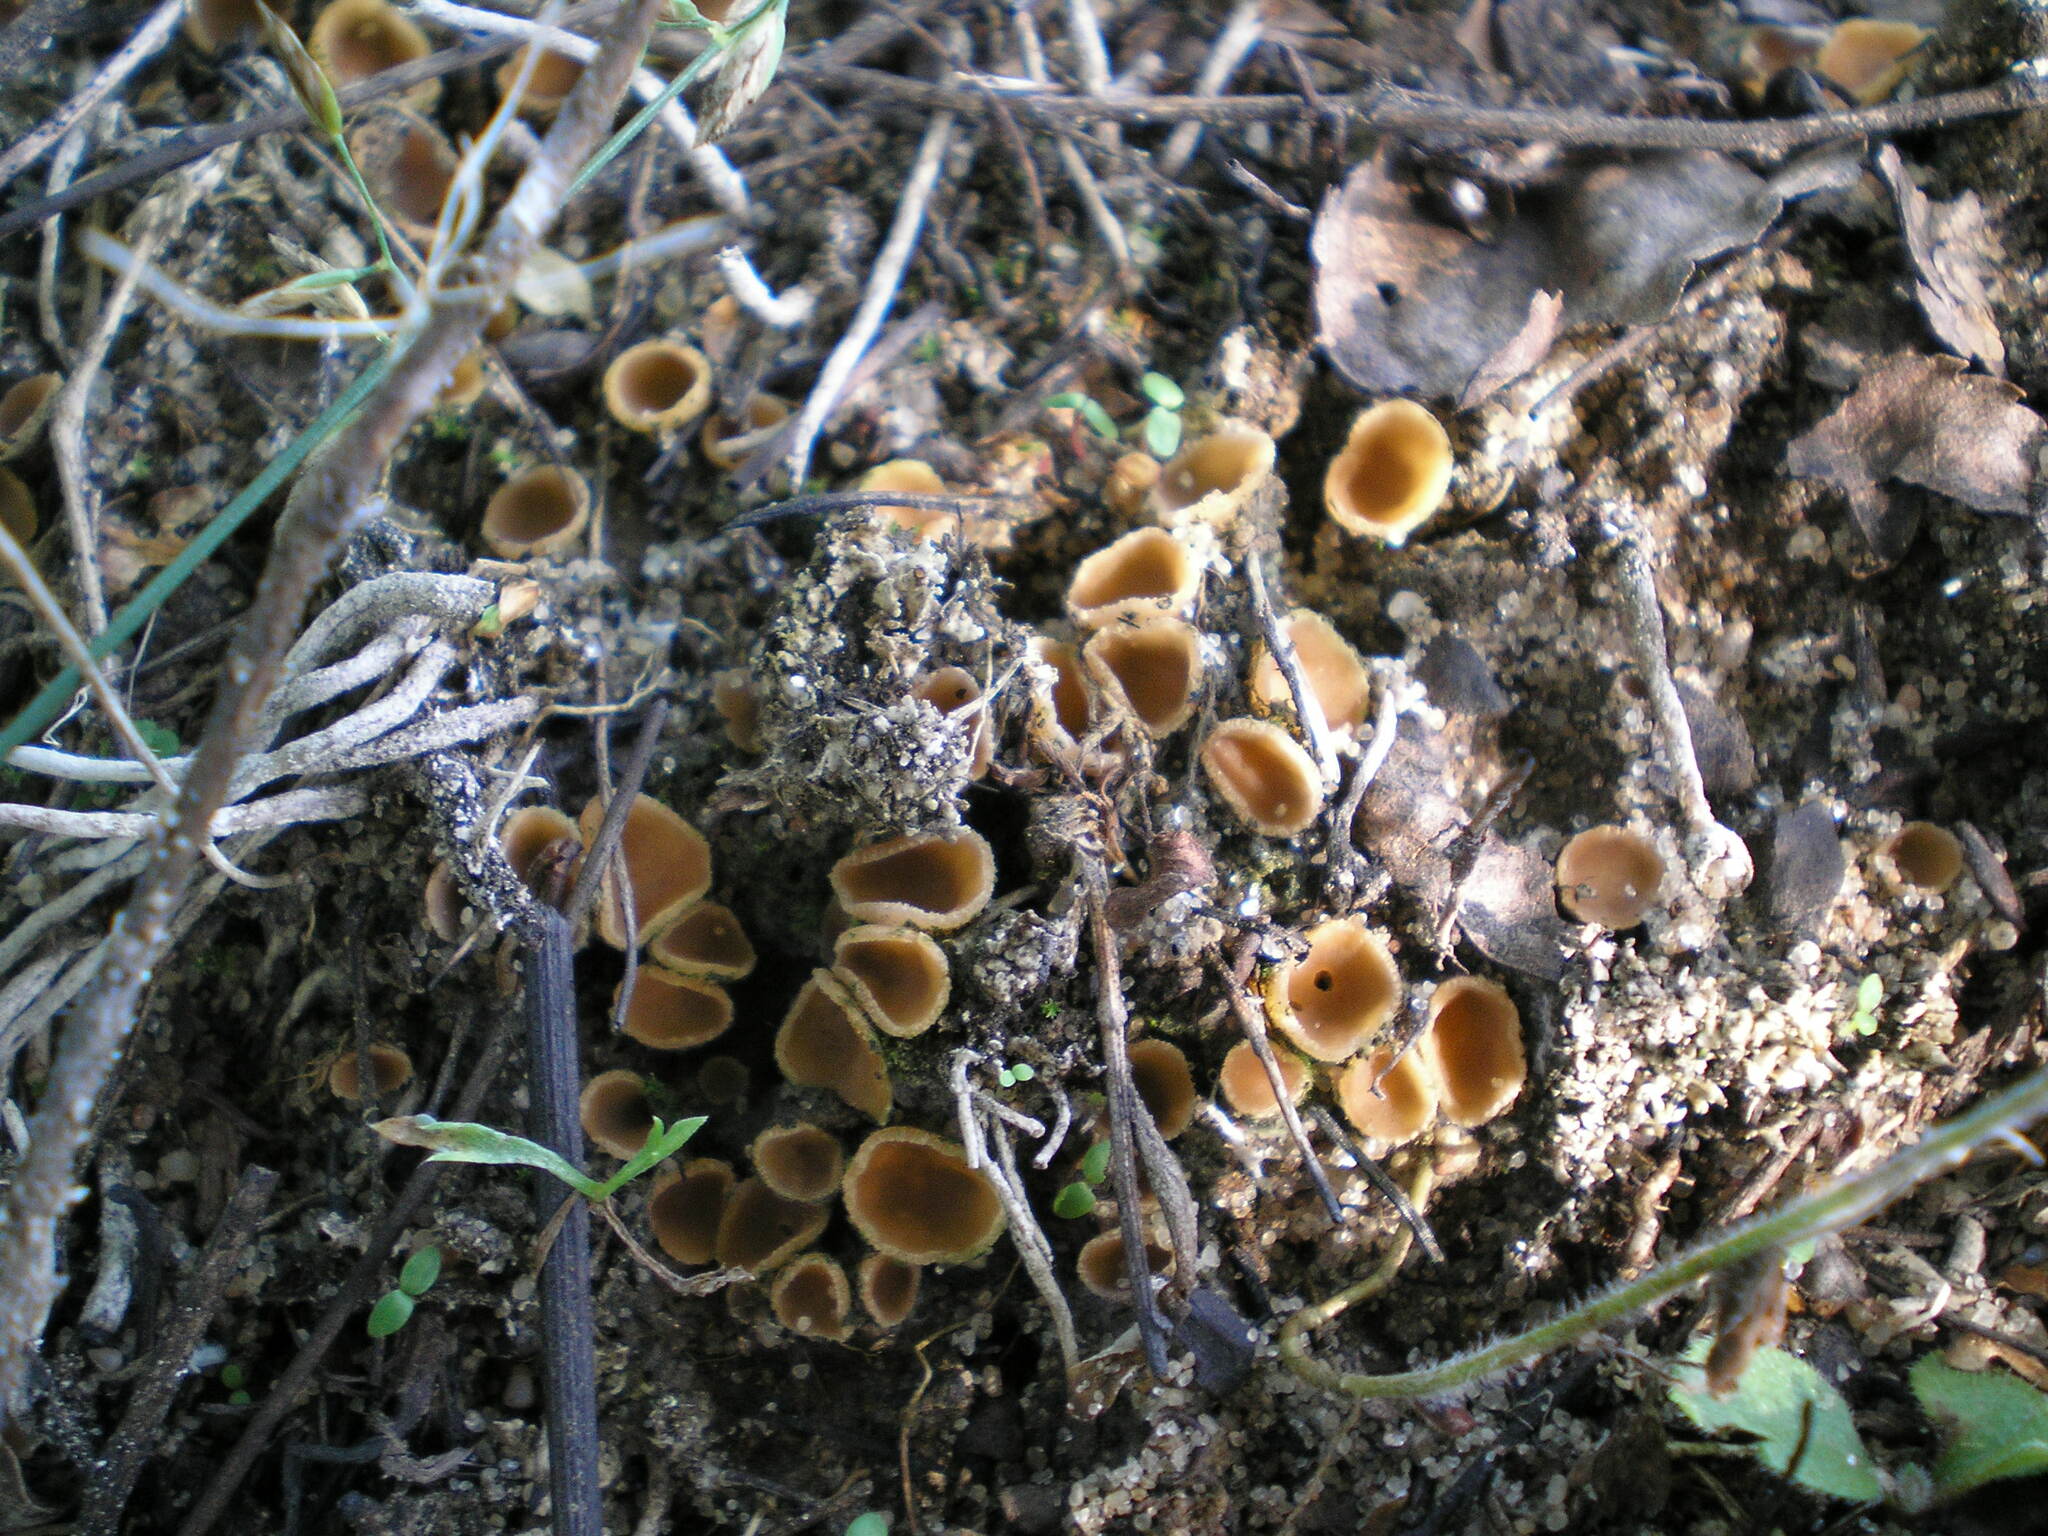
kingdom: Fungi
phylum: Ascomycota
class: Pezizomycetes
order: Pezizales
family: Pyronemataceae
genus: Geopora
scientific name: Geopora semi-immersa
